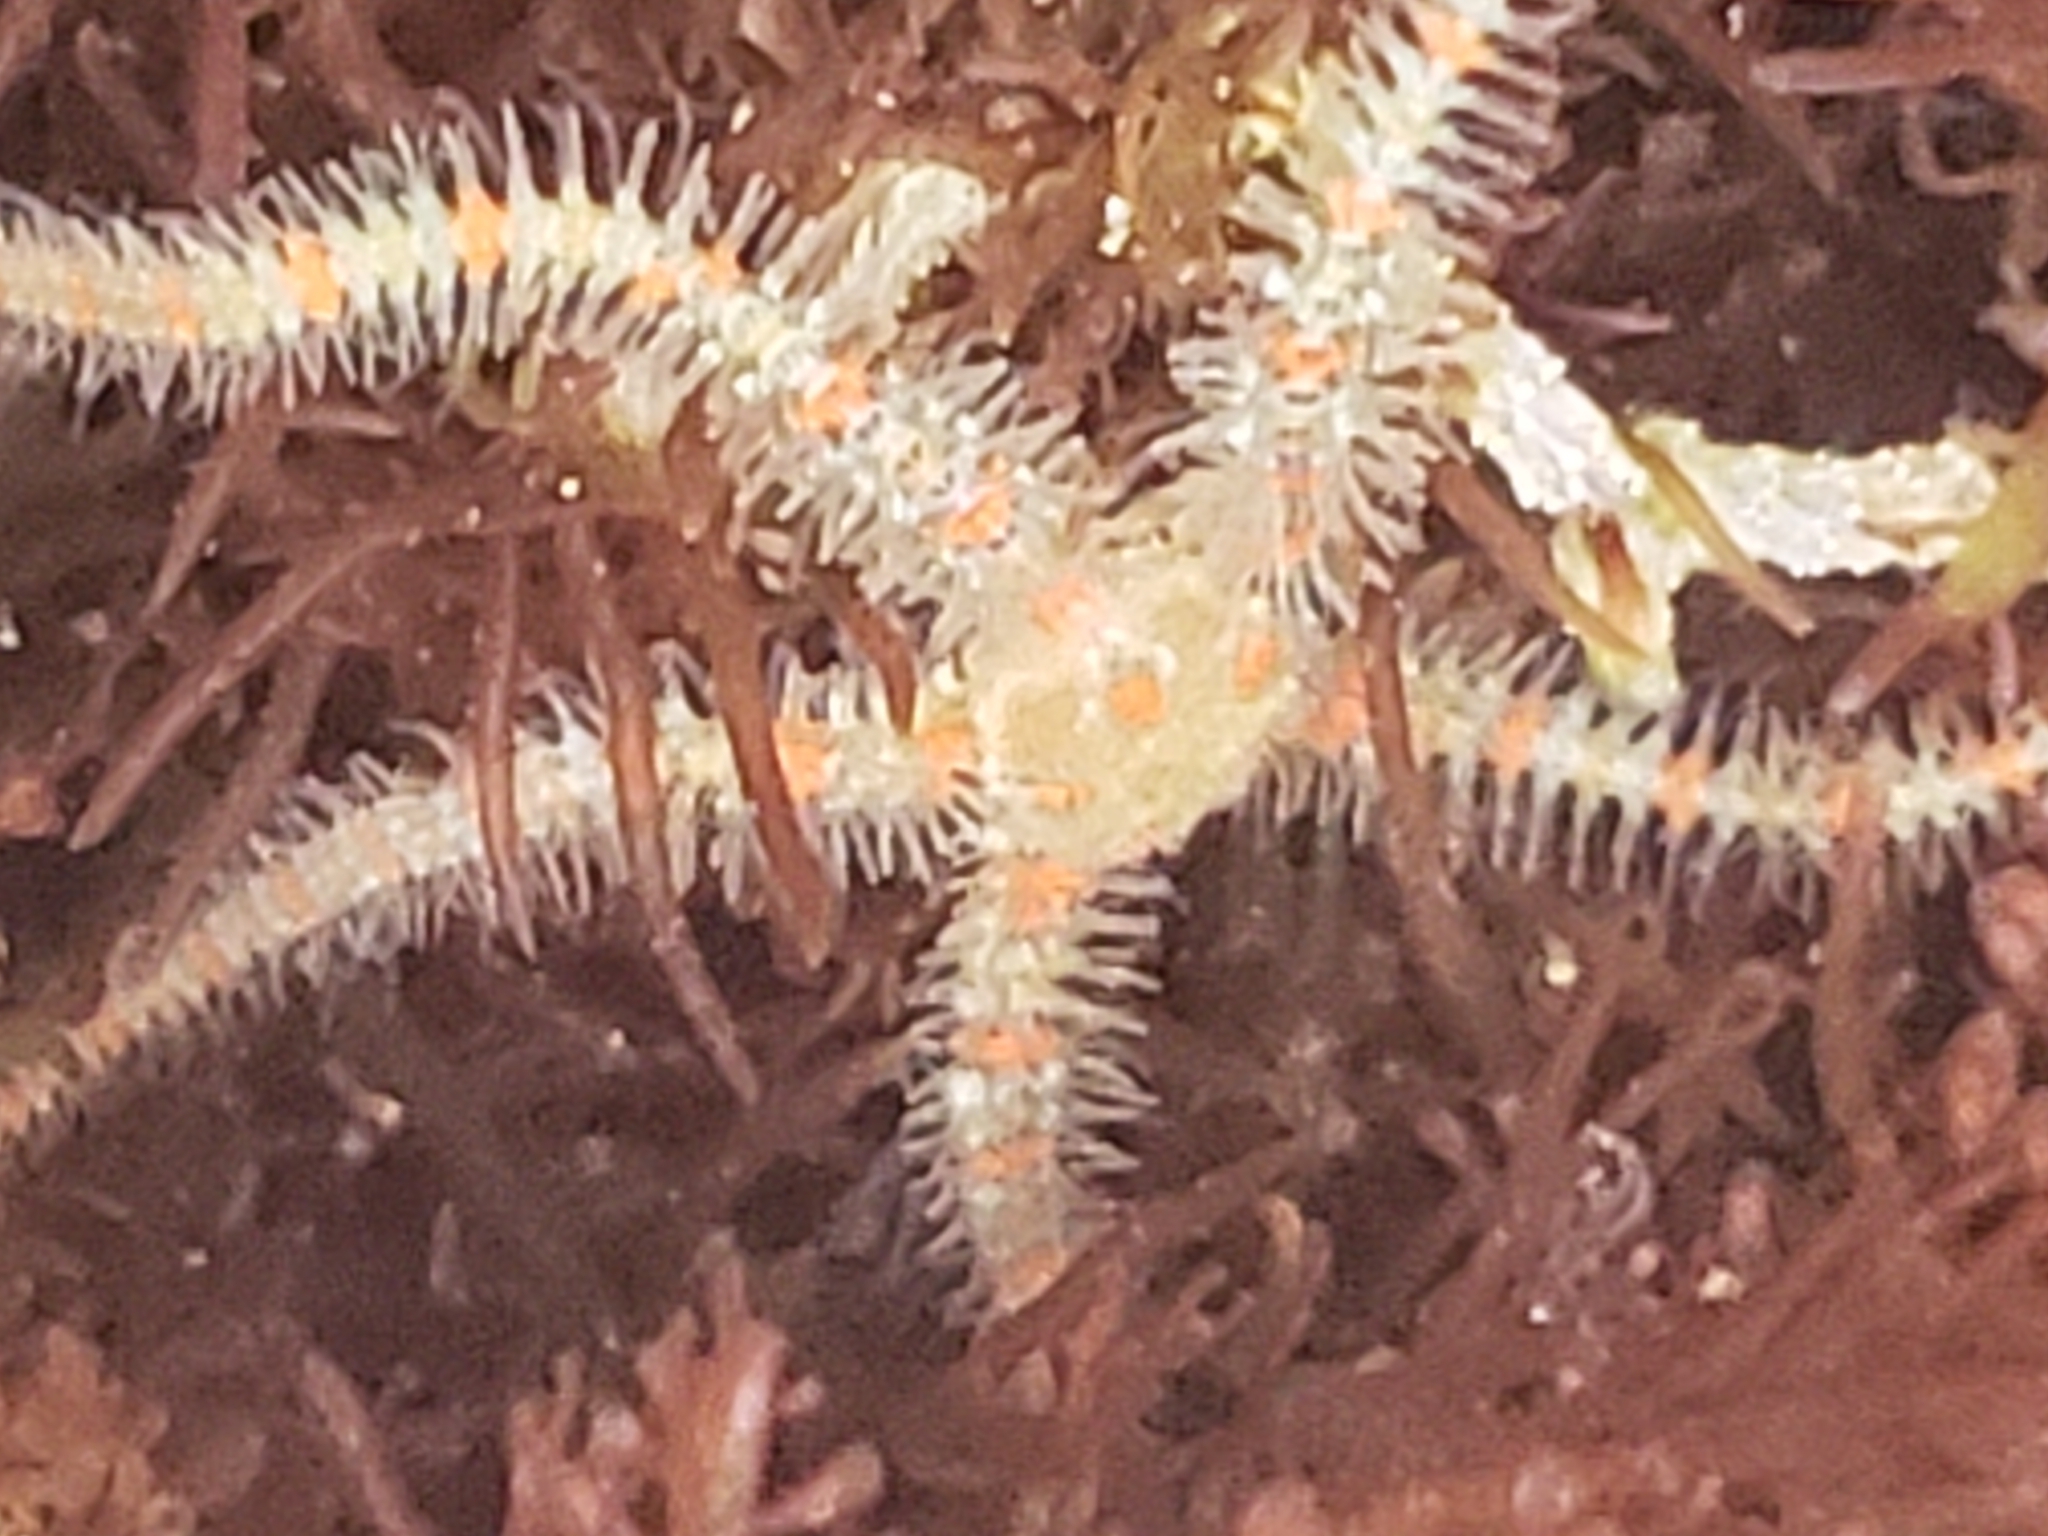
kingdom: Animalia
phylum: Echinodermata
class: Ophiuroidea
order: Amphilepidida
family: Ophiotrichidae
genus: Ophiothrix
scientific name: Ophiothrix spiculata
